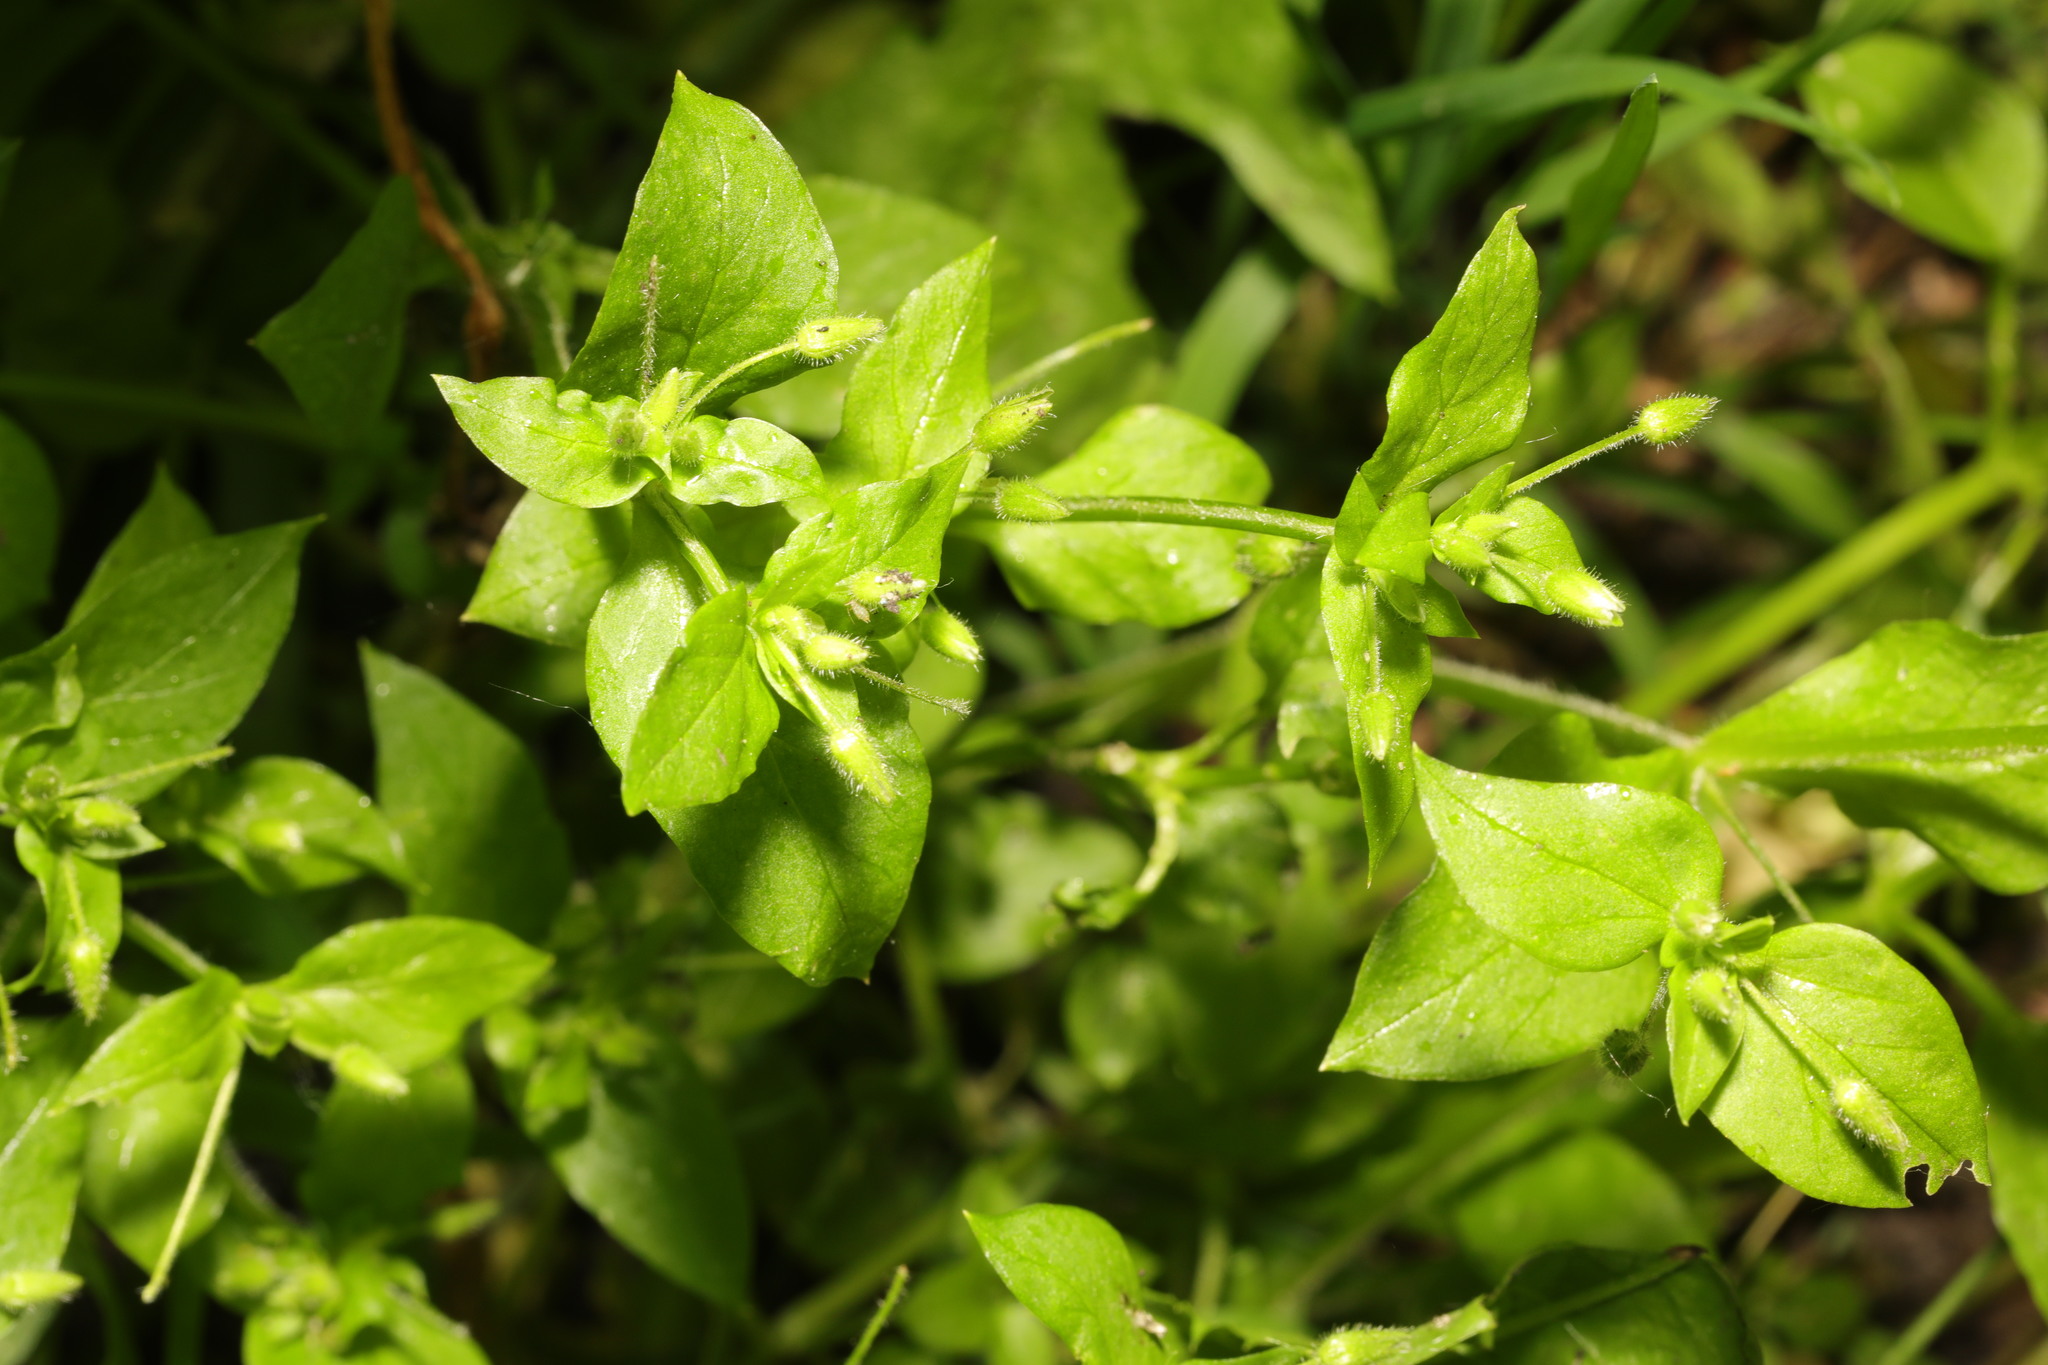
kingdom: Plantae
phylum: Tracheophyta
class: Magnoliopsida
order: Caryophyllales
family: Caryophyllaceae
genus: Stellaria
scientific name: Stellaria media
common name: Common chickweed
